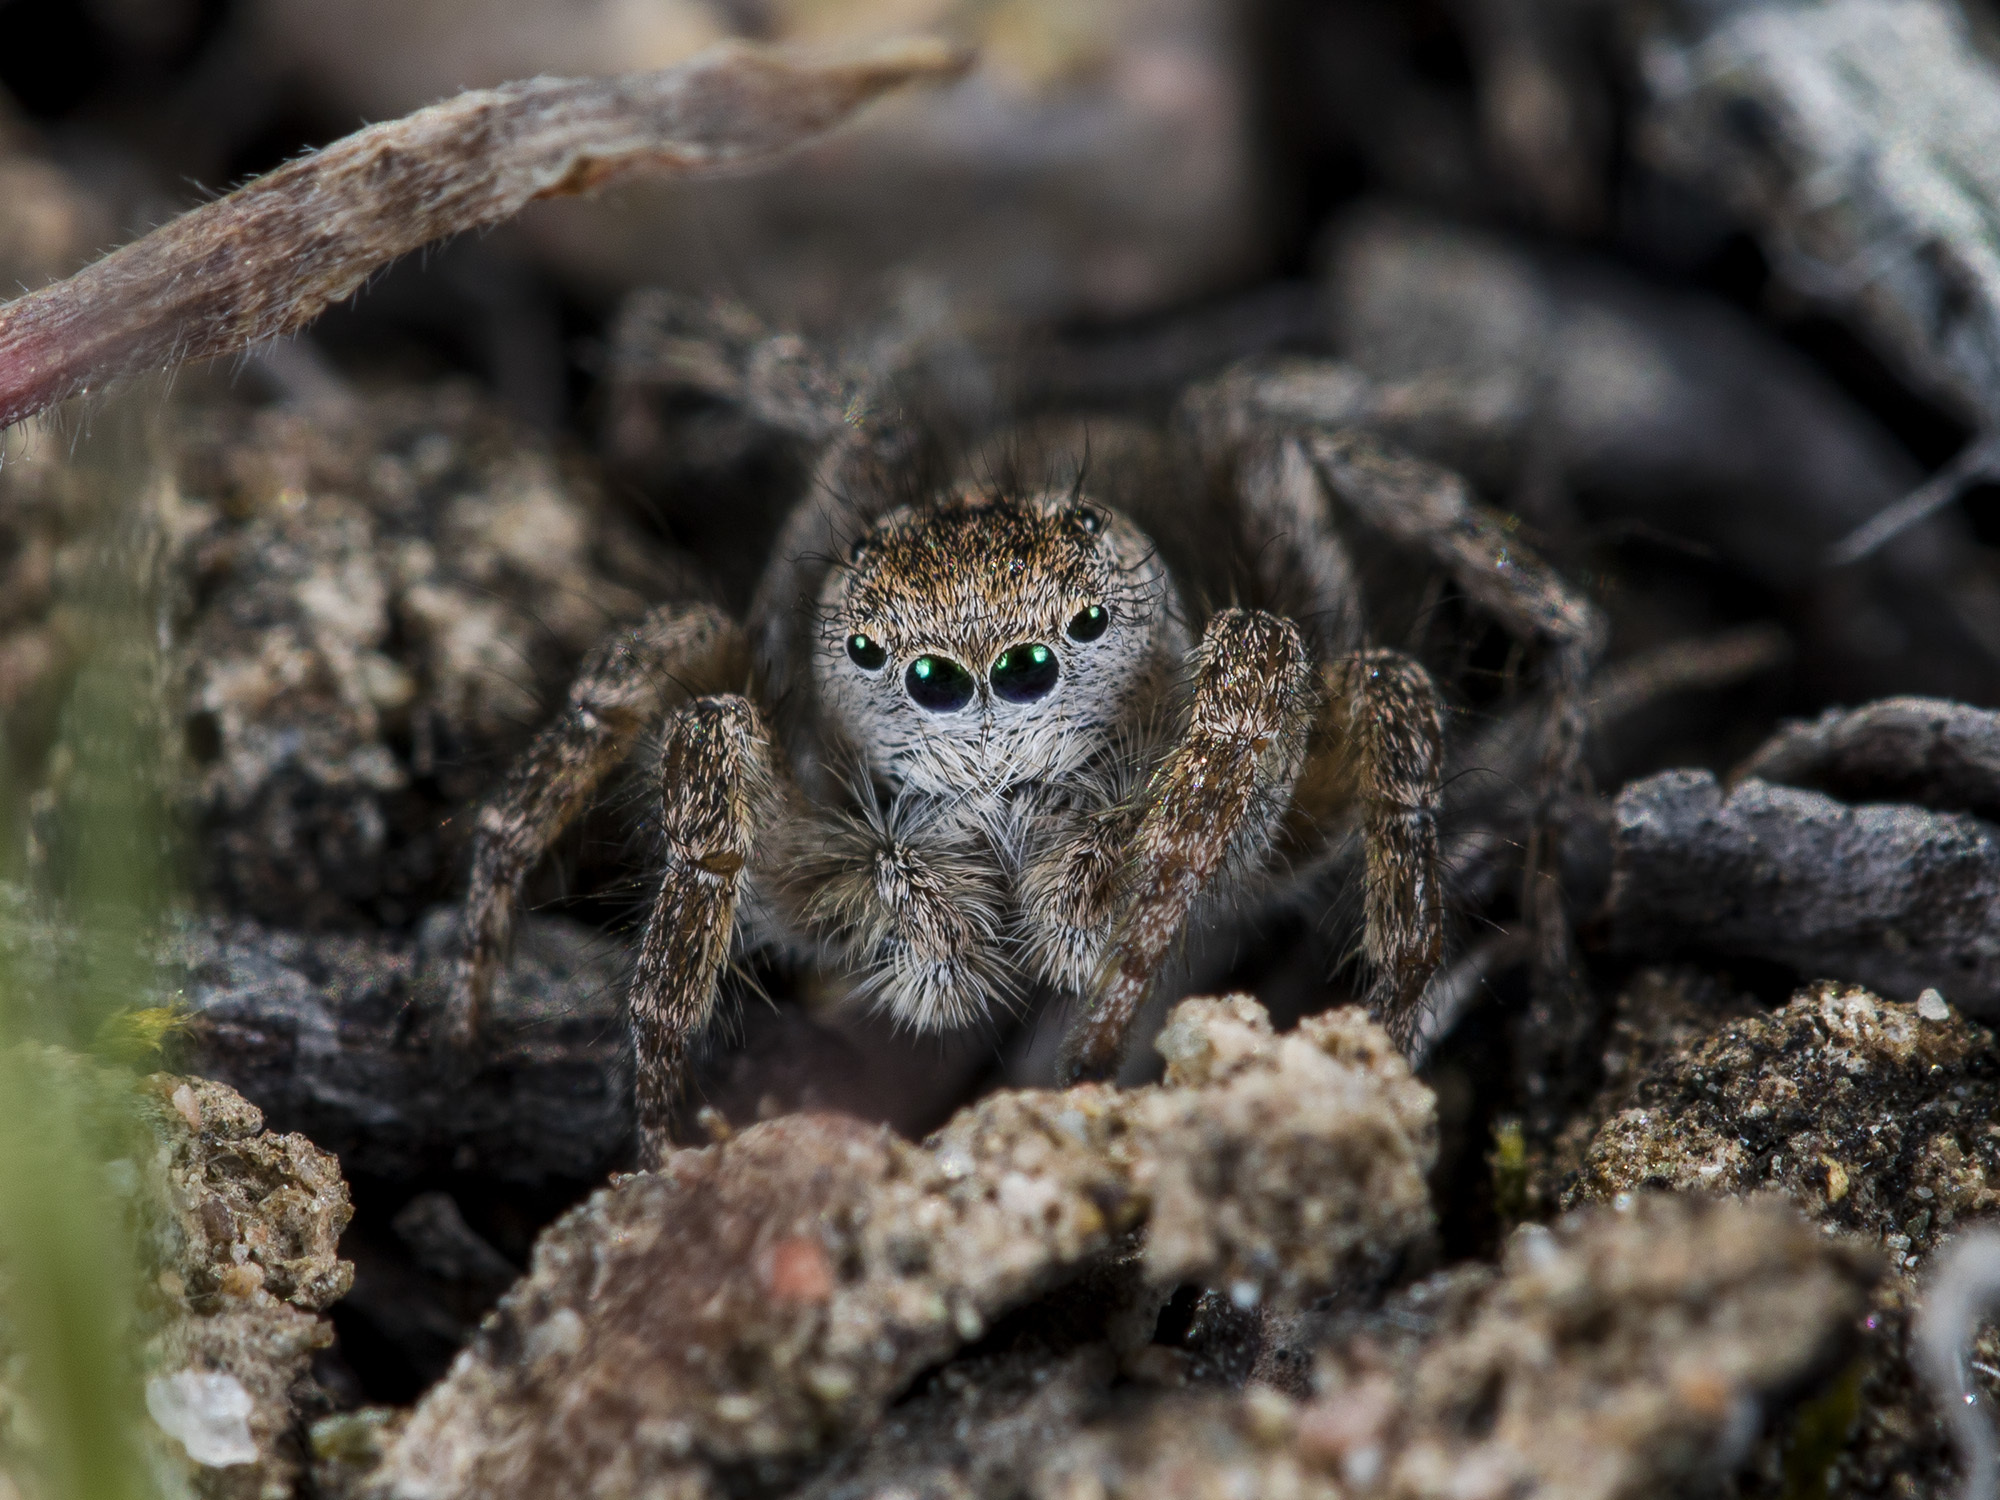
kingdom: Animalia
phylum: Arthropoda
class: Arachnida
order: Araneae
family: Salticidae
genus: Aelurillus
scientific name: Aelurillus dubatolovi
